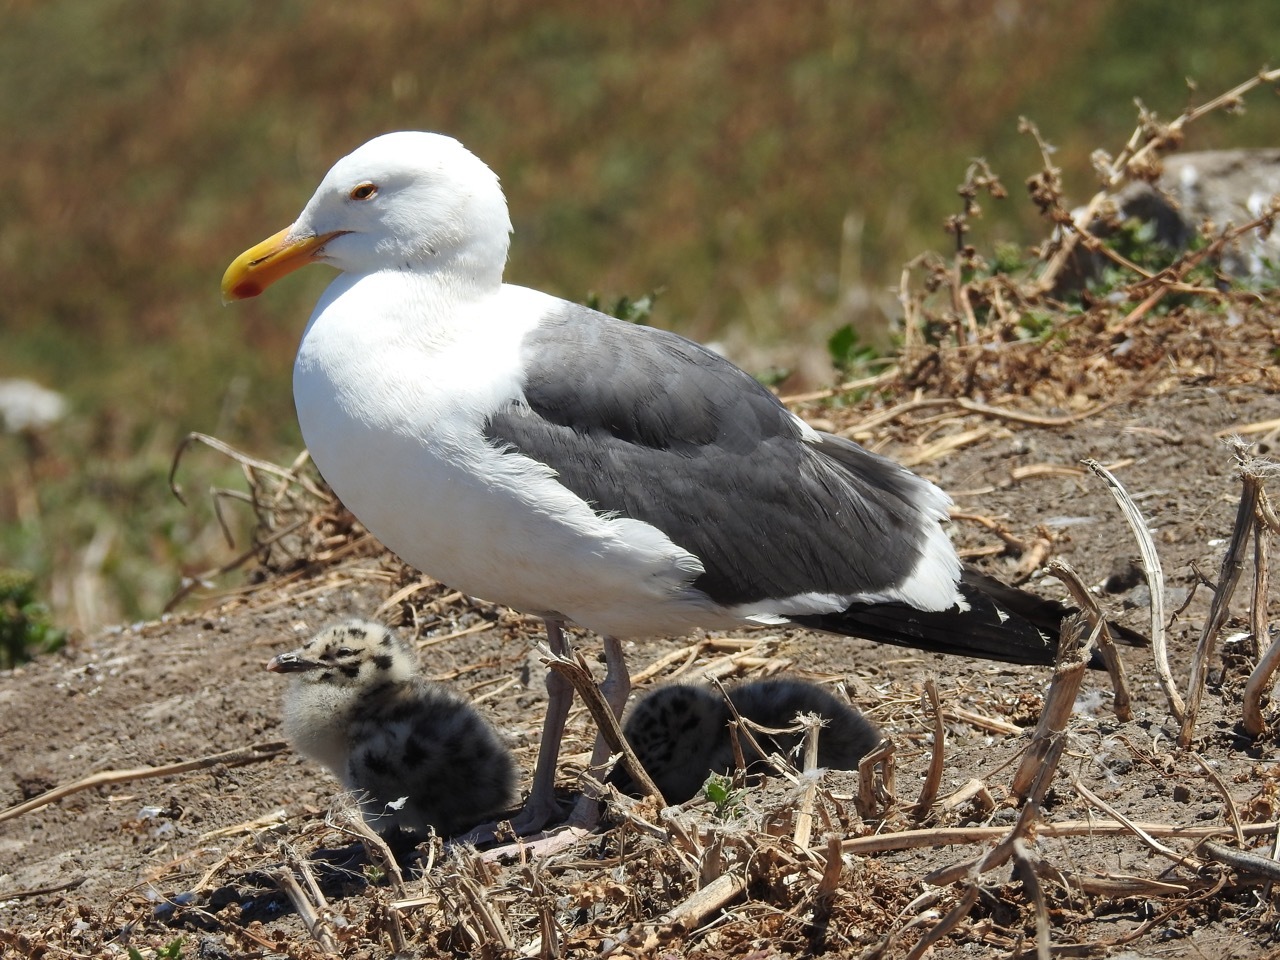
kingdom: Animalia
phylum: Chordata
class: Aves
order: Charadriiformes
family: Laridae
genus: Larus
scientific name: Larus occidentalis
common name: Western gull
